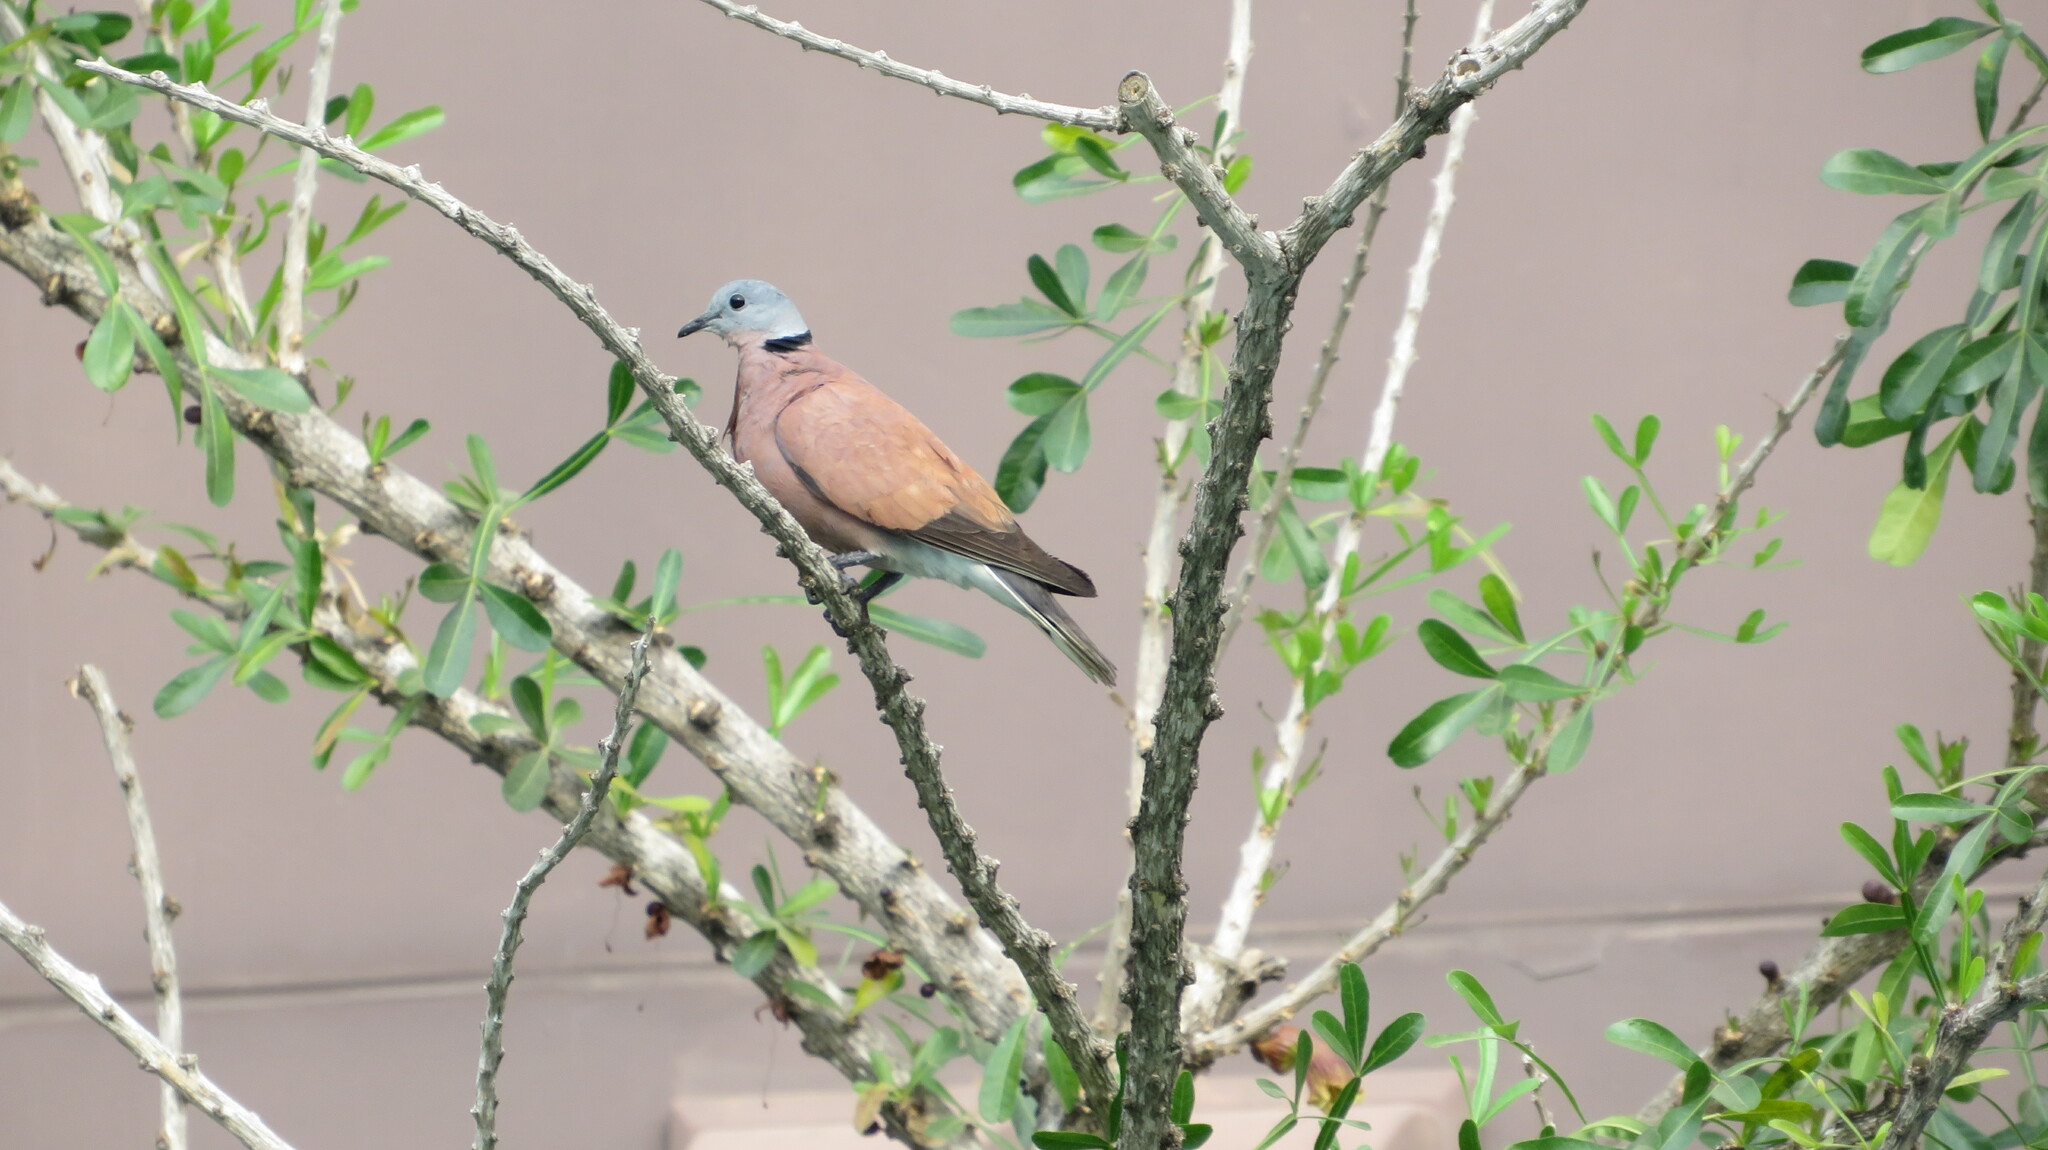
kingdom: Animalia
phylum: Chordata
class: Aves
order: Columbiformes
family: Columbidae
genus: Streptopelia
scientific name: Streptopelia tranquebarica
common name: Red turtle dove
